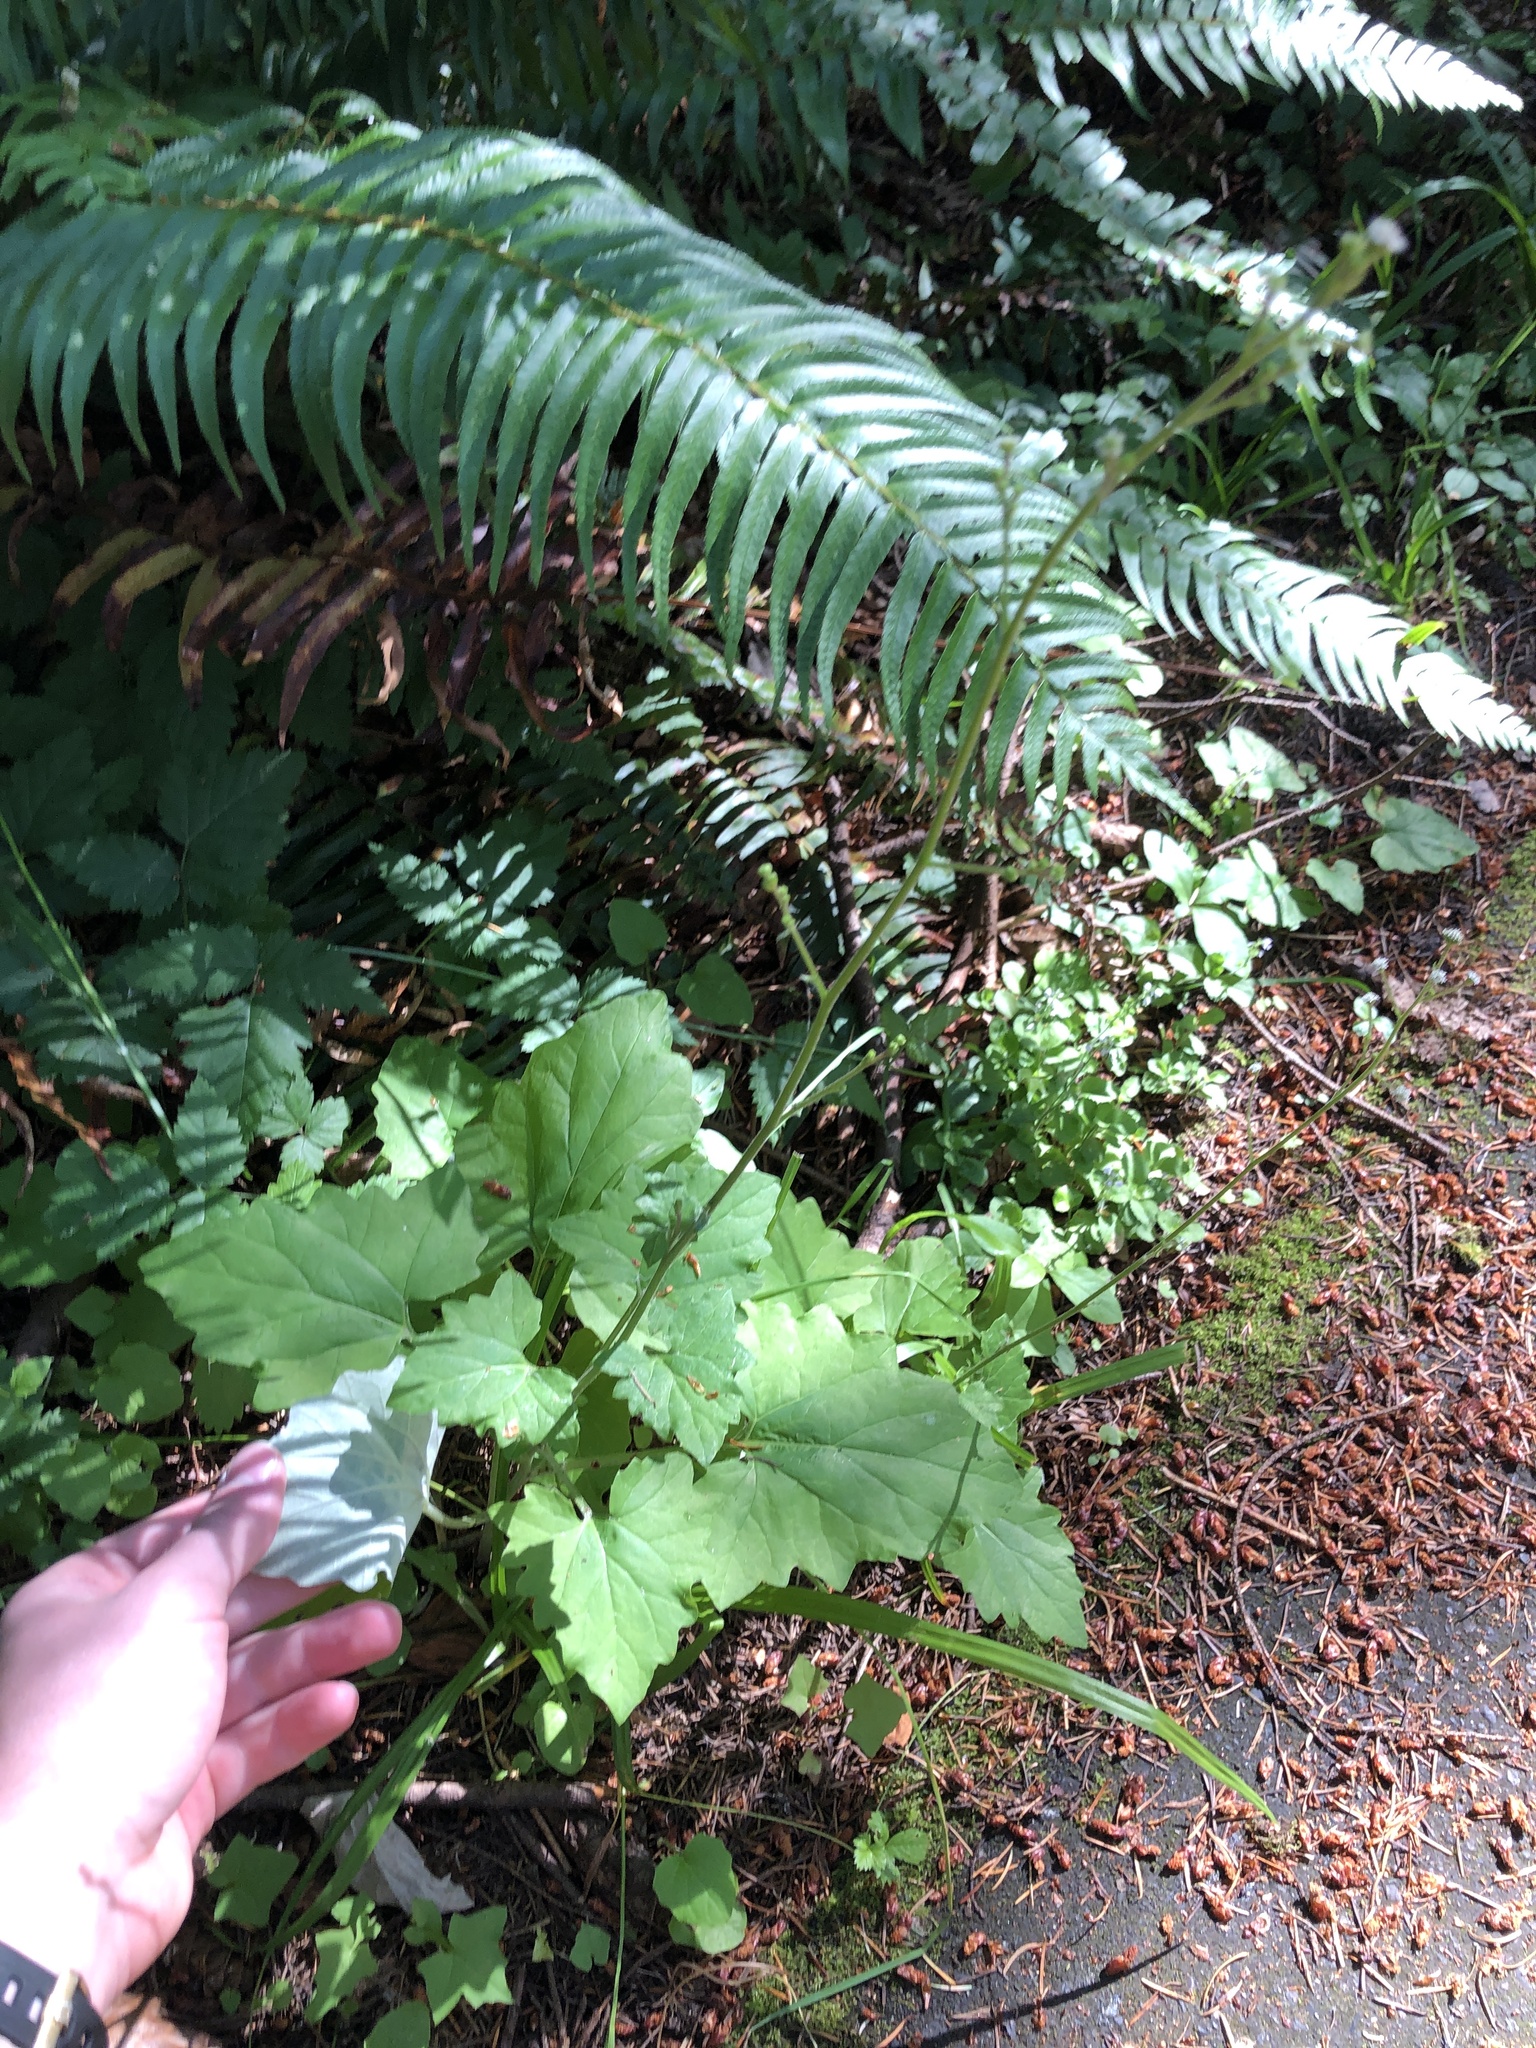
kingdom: Plantae
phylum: Tracheophyta
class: Magnoliopsida
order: Asterales
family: Asteraceae
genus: Adenocaulon
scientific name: Adenocaulon bicolor
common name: Trailplant
